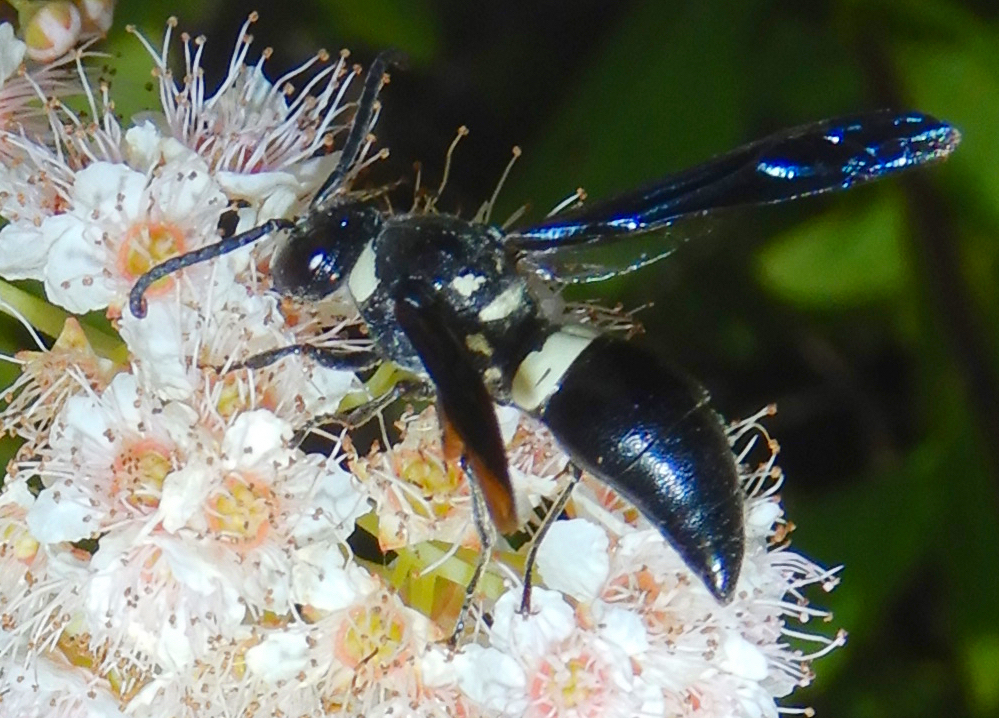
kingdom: Animalia
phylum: Arthropoda
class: Insecta
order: Hymenoptera
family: Eumenidae
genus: Monobia
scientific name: Monobia quadridens
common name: Four-toothed mason wasp
